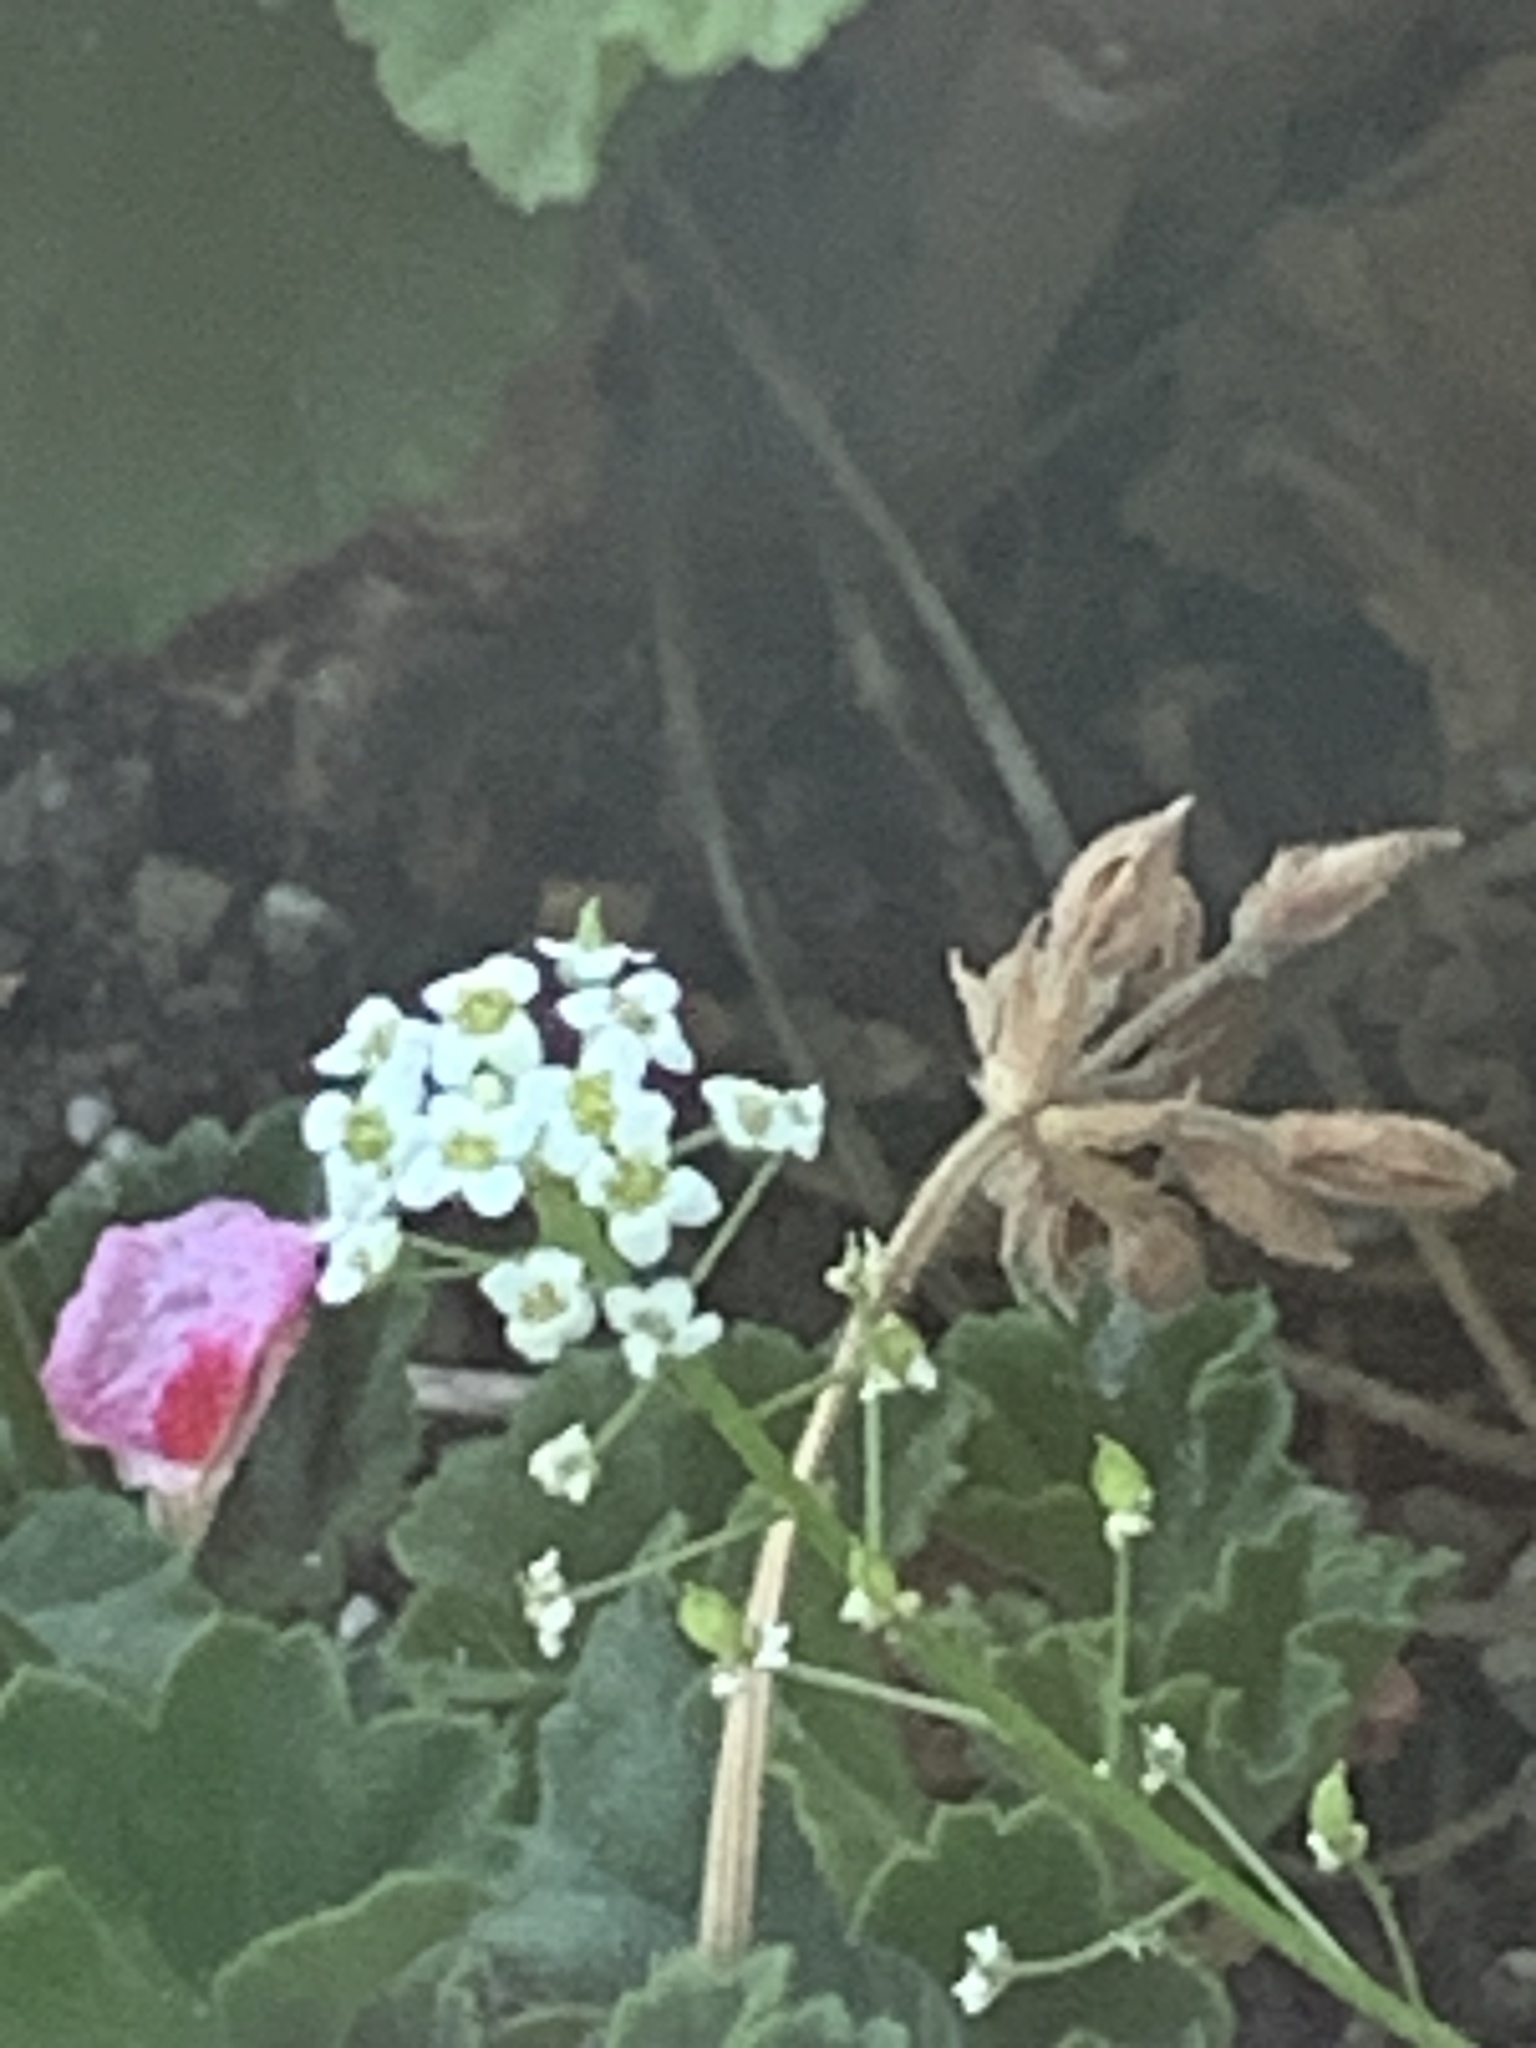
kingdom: Plantae
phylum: Tracheophyta
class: Magnoliopsida
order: Brassicales
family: Brassicaceae
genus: Lobularia
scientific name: Lobularia maritima
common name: Sweet alison
